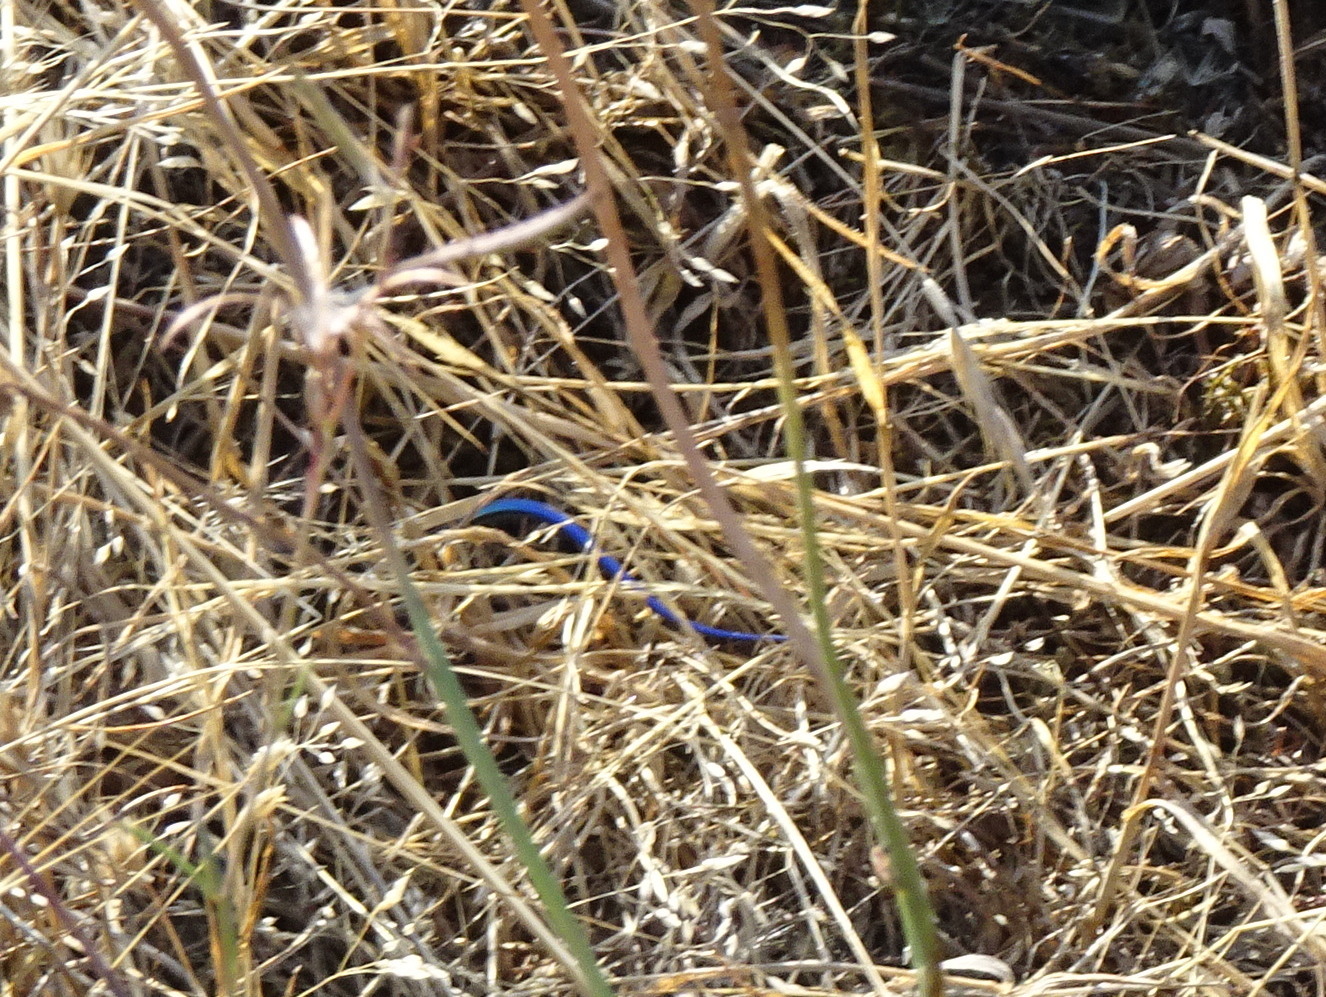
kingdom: Animalia
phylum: Chordata
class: Squamata
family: Scincidae
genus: Plestiodon
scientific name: Plestiodon skiltonianus
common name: Coronado island skink [interparietalis]
